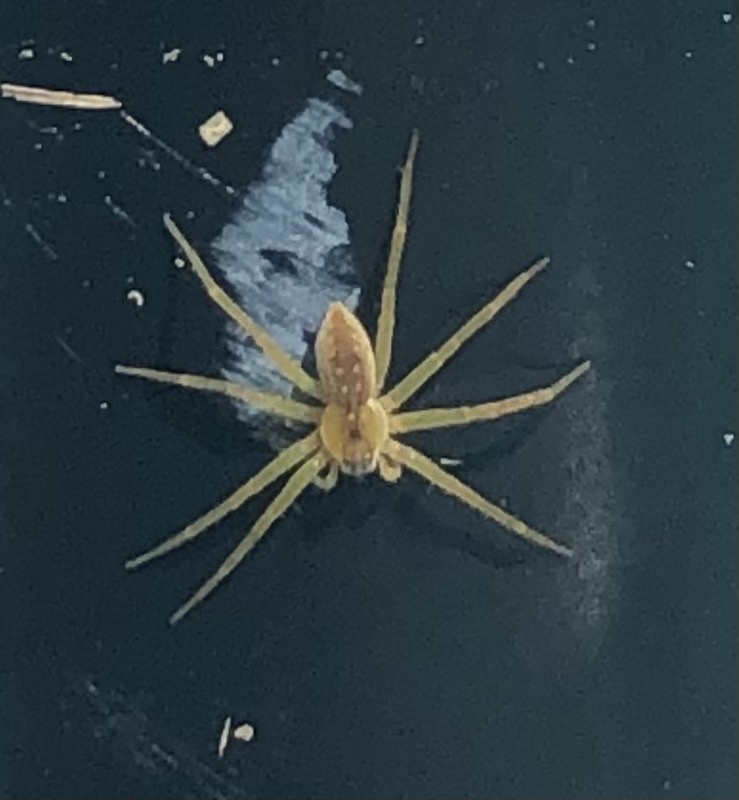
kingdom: Animalia
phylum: Arthropoda
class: Arachnida
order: Araneae
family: Pisauridae
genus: Dolomedes
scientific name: Dolomedes triton
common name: Six-spotted fishing spider
